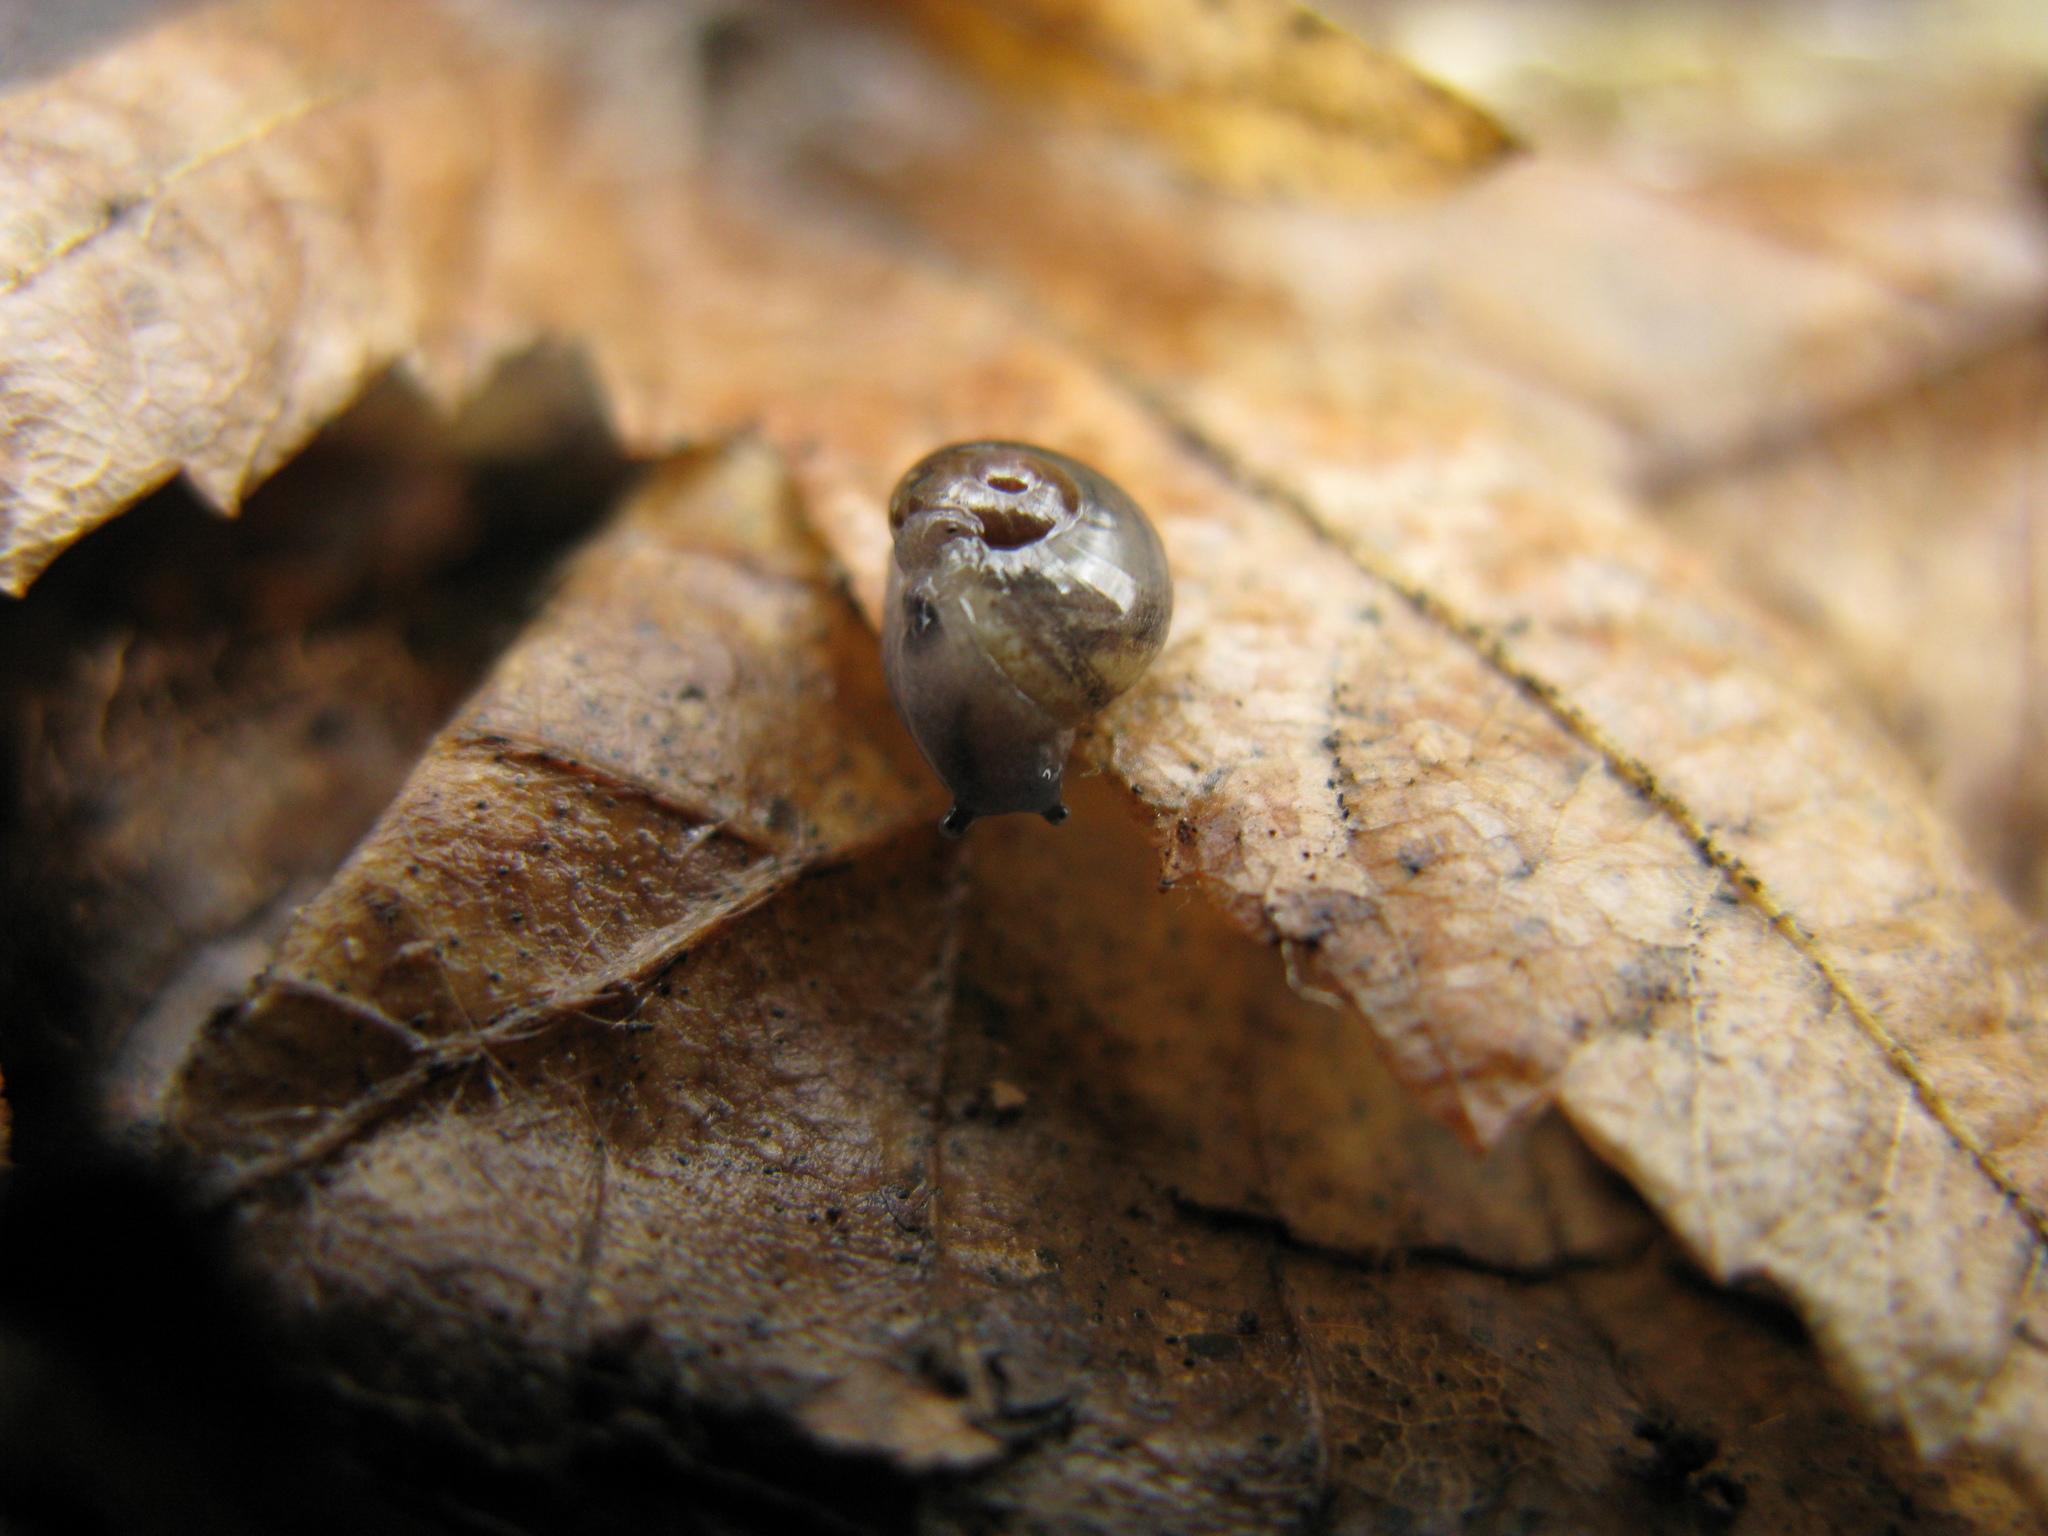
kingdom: Animalia
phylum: Mollusca
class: Gastropoda
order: Stylommatophora
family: Vitrinidae
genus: Vitrina
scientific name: Vitrina pellucida
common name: Pellucid glass snail
